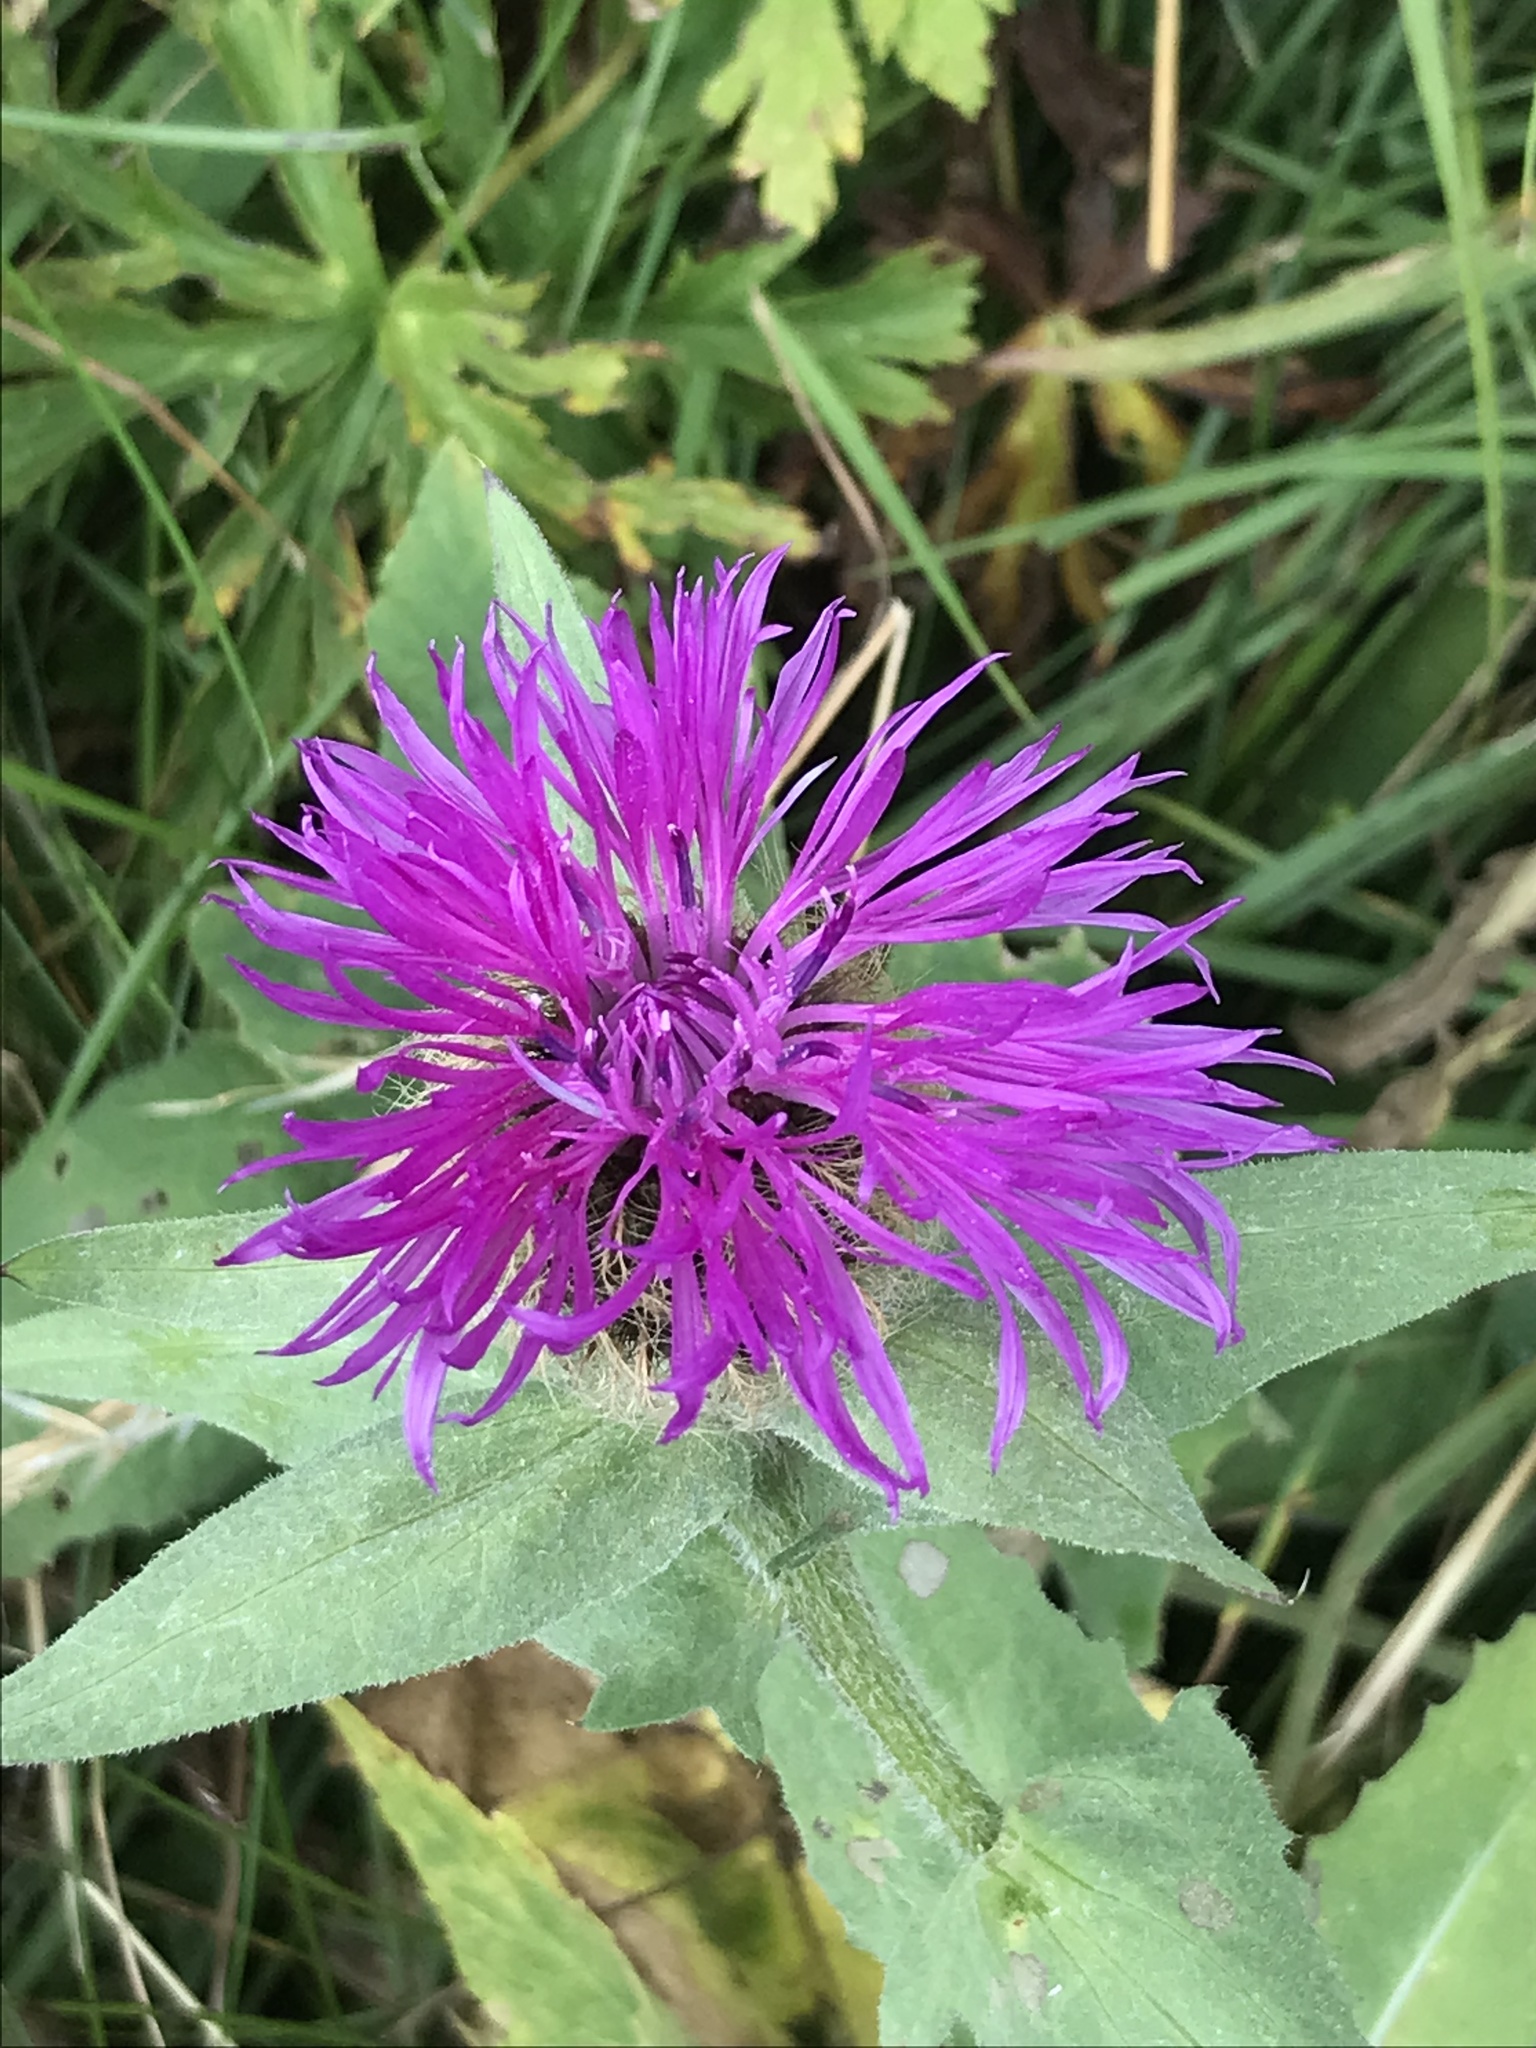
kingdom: Plantae
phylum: Tracheophyta
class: Magnoliopsida
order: Asterales
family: Asteraceae
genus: Centaurea
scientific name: Centaurea nervosa
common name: Singleflower knapweed
